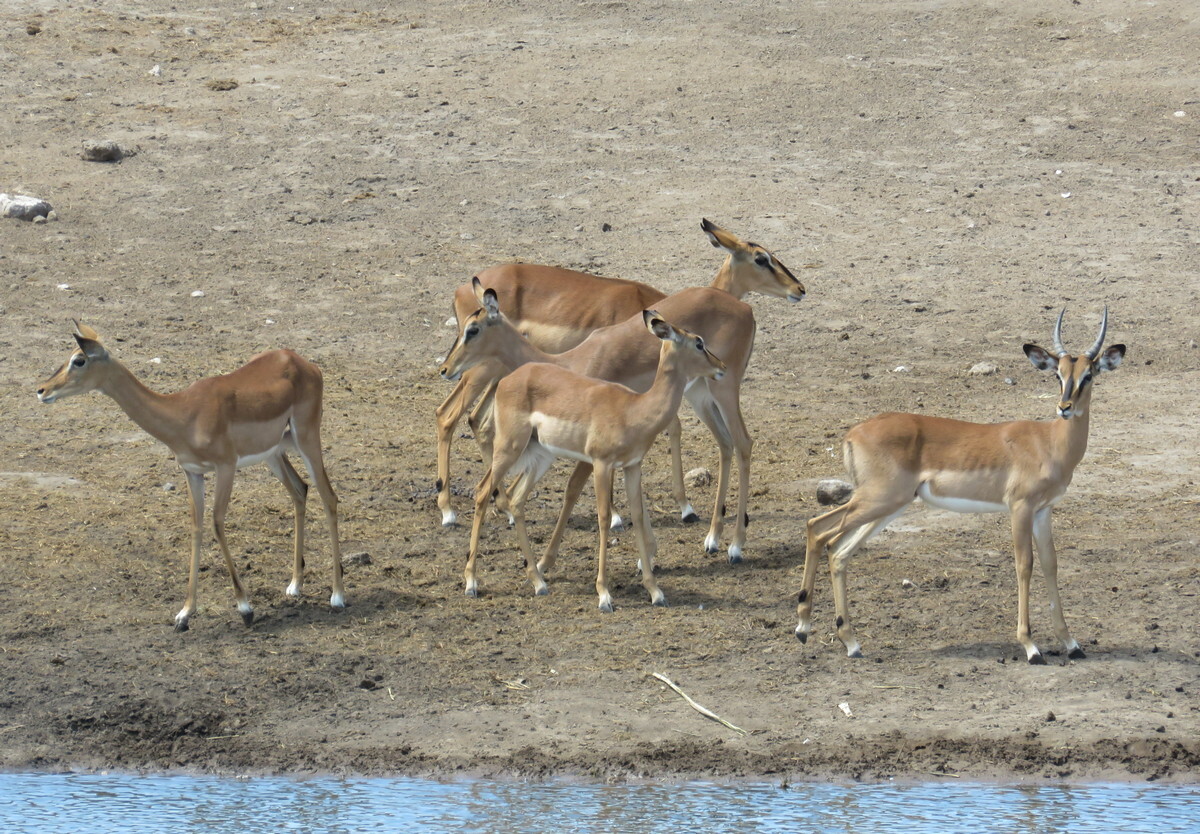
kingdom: Animalia
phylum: Chordata
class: Mammalia
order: Artiodactyla
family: Bovidae
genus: Aepyceros
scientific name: Aepyceros melampus
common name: Impala
